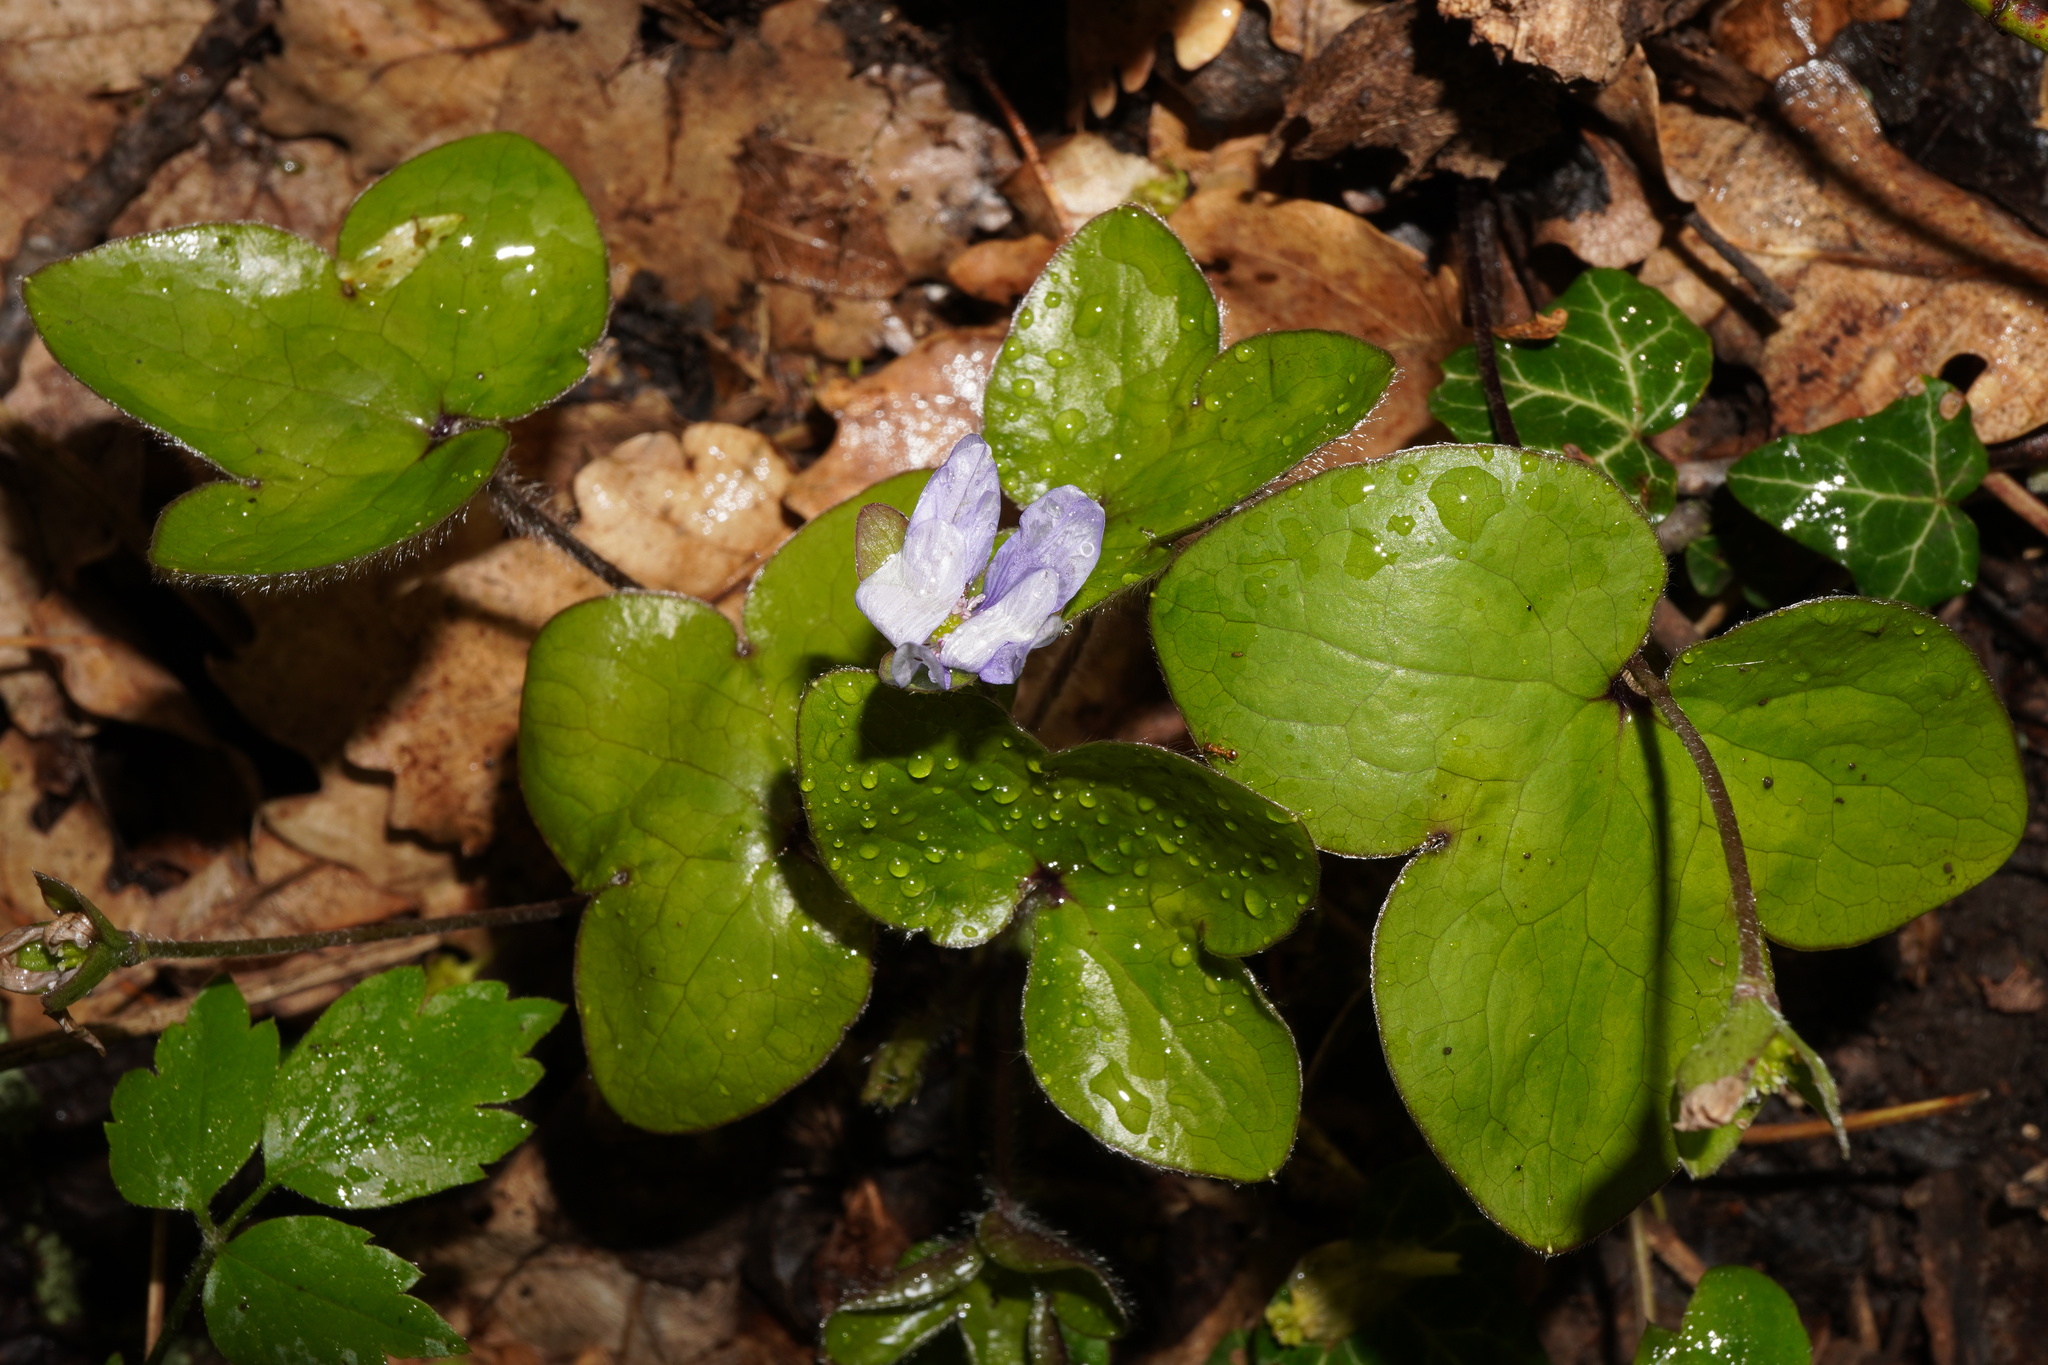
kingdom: Plantae
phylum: Tracheophyta
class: Magnoliopsida
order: Ranunculales
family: Ranunculaceae
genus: Hepatica
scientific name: Hepatica nobilis
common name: Liverleaf
